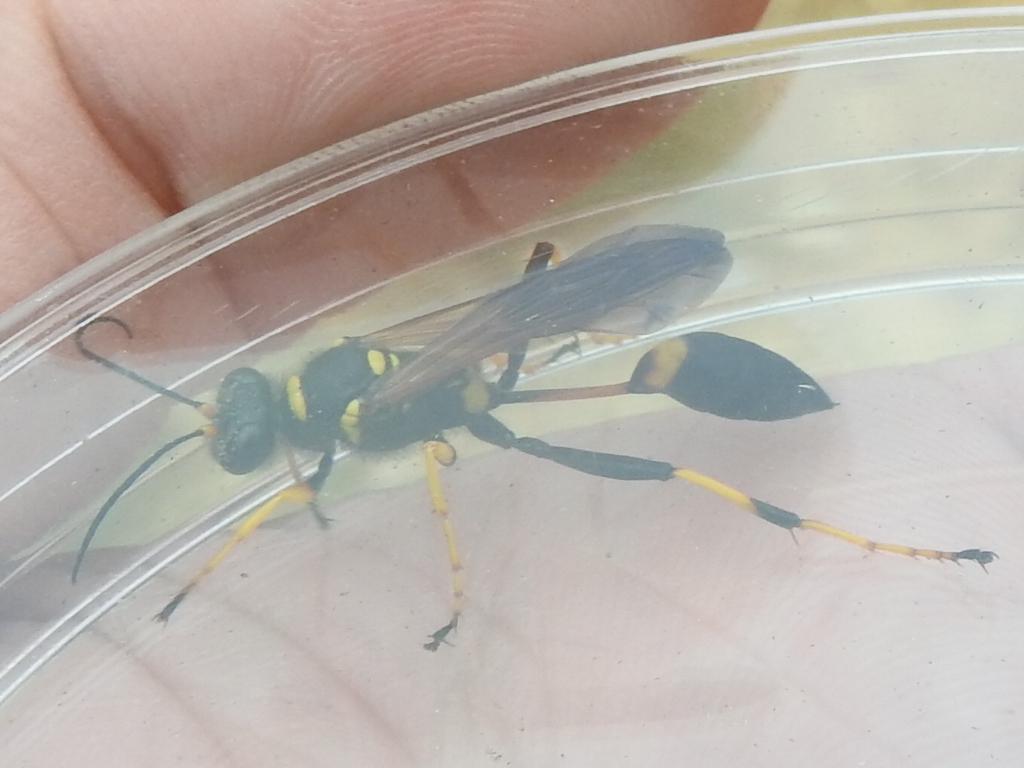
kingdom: Animalia
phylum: Arthropoda
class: Insecta
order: Hymenoptera
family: Sphecidae
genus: Sceliphron
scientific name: Sceliphron caementarium
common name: Mud dauber
